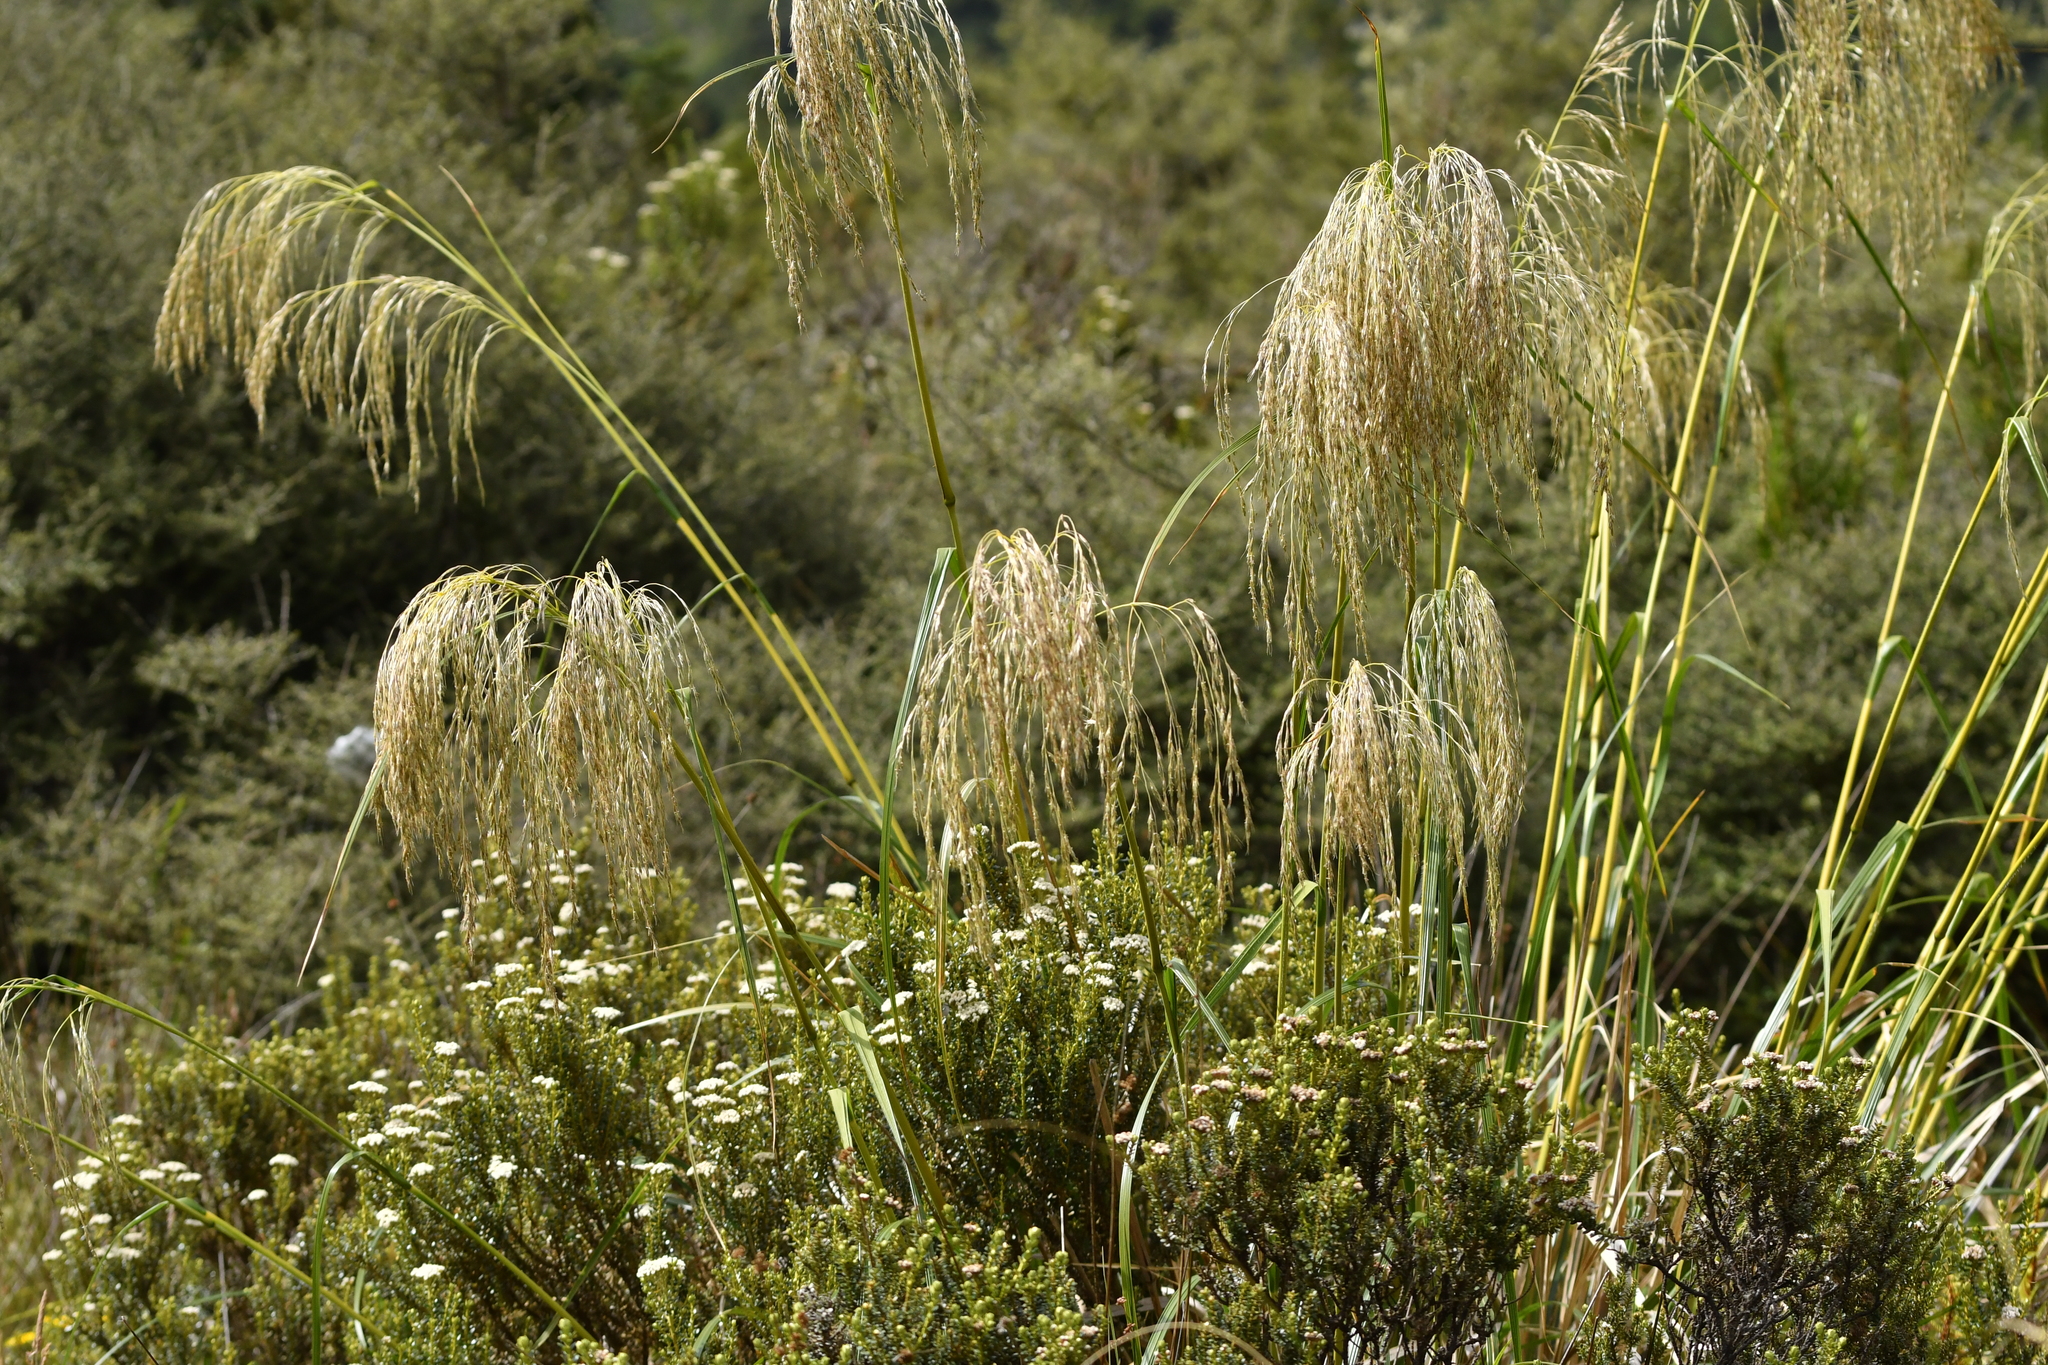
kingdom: Plantae
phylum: Tracheophyta
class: Liliopsida
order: Poales
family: Poaceae
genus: Chionochloa
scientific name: Chionochloa conspicua
